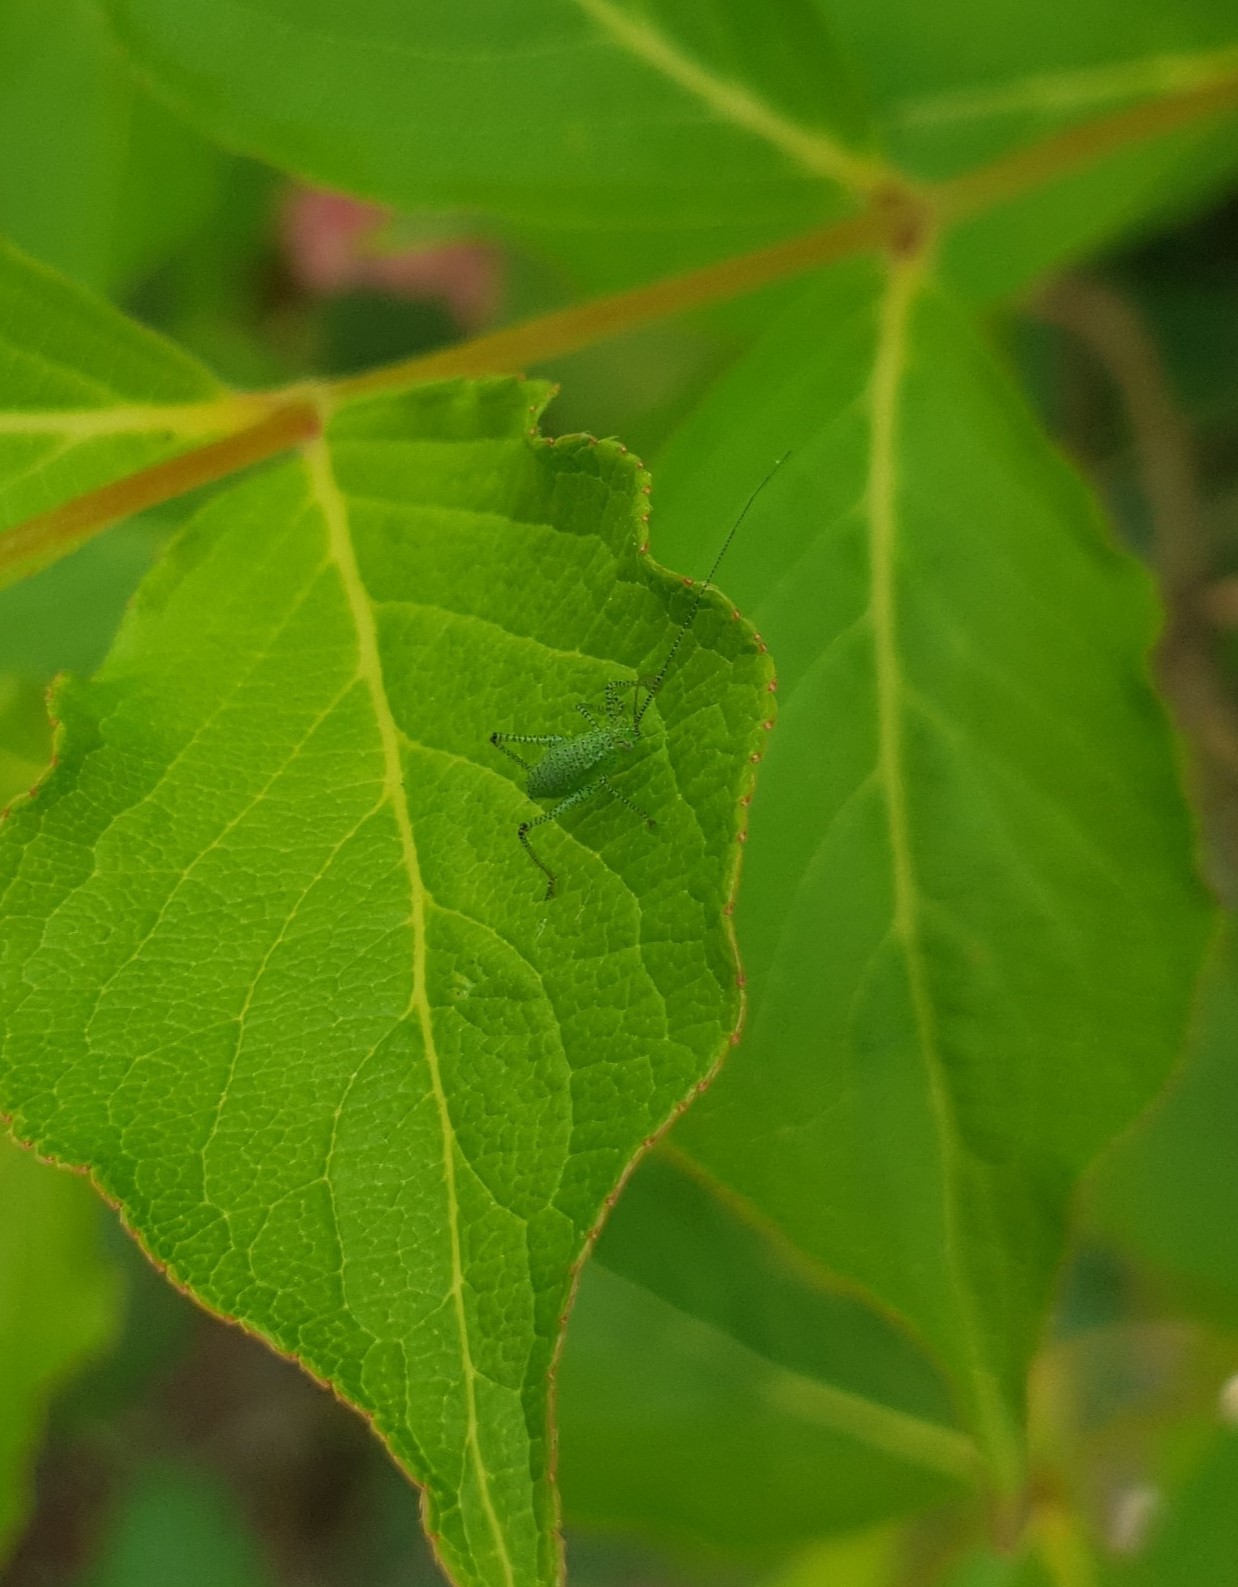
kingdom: Animalia
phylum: Arthropoda
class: Insecta
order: Orthoptera
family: Tettigoniidae
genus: Leptophyes
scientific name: Leptophyes punctatissima
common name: Speckled bush-cricket
